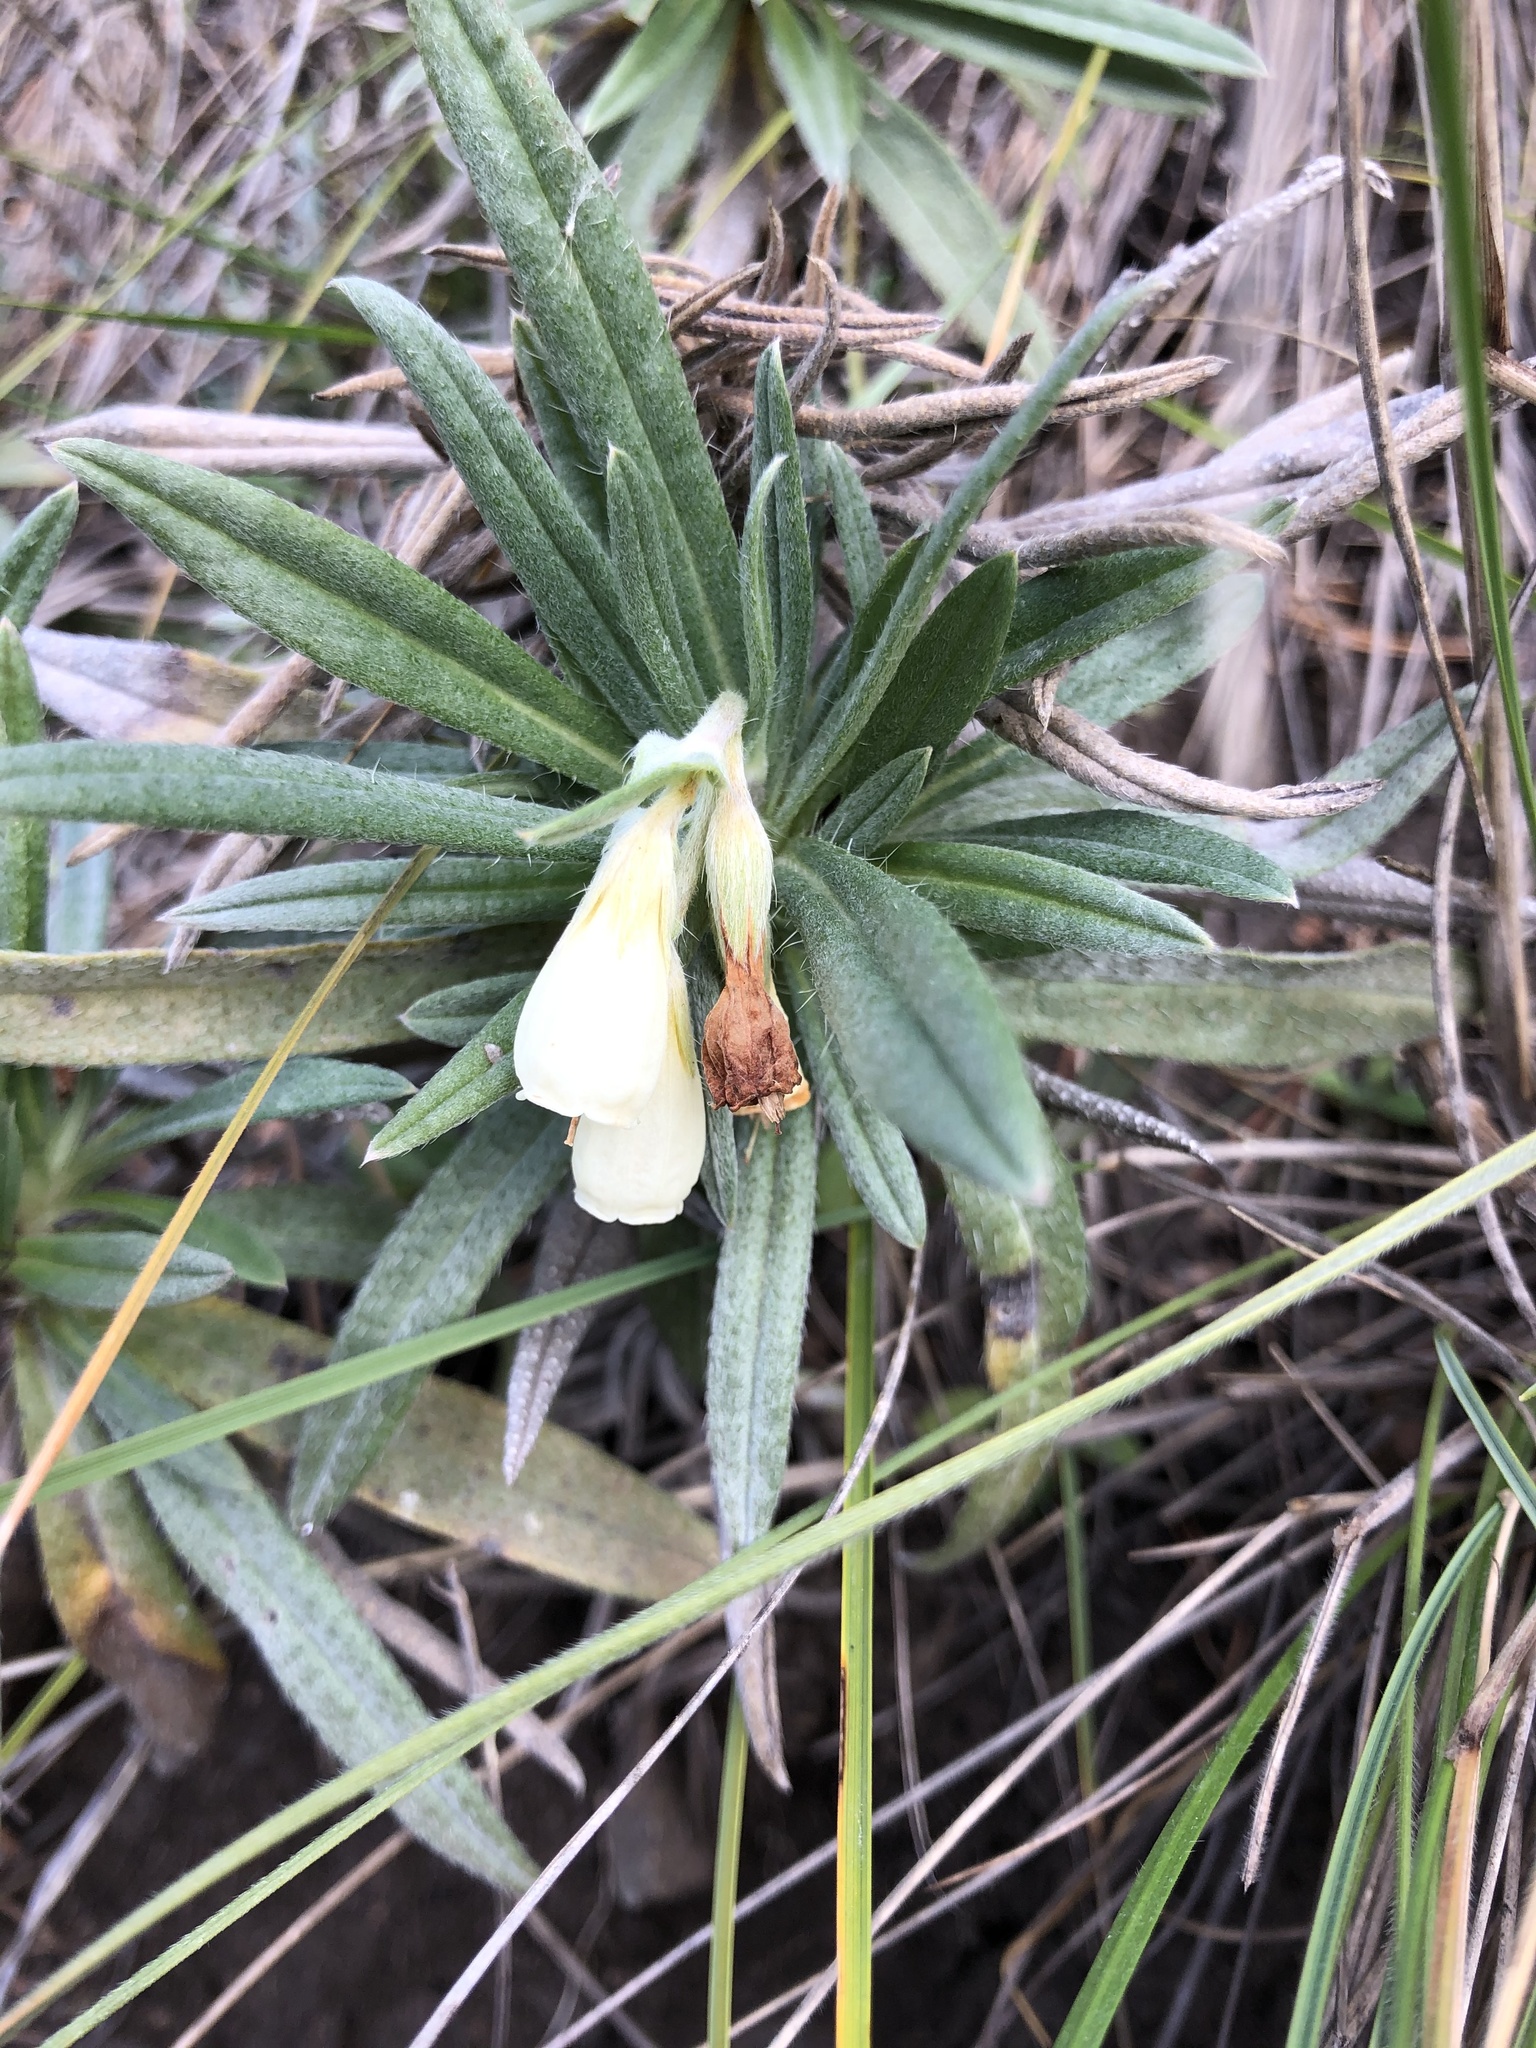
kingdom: Plantae
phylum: Tracheophyta
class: Magnoliopsida
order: Boraginales
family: Boraginaceae
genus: Onosma
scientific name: Onosma simplicissima
